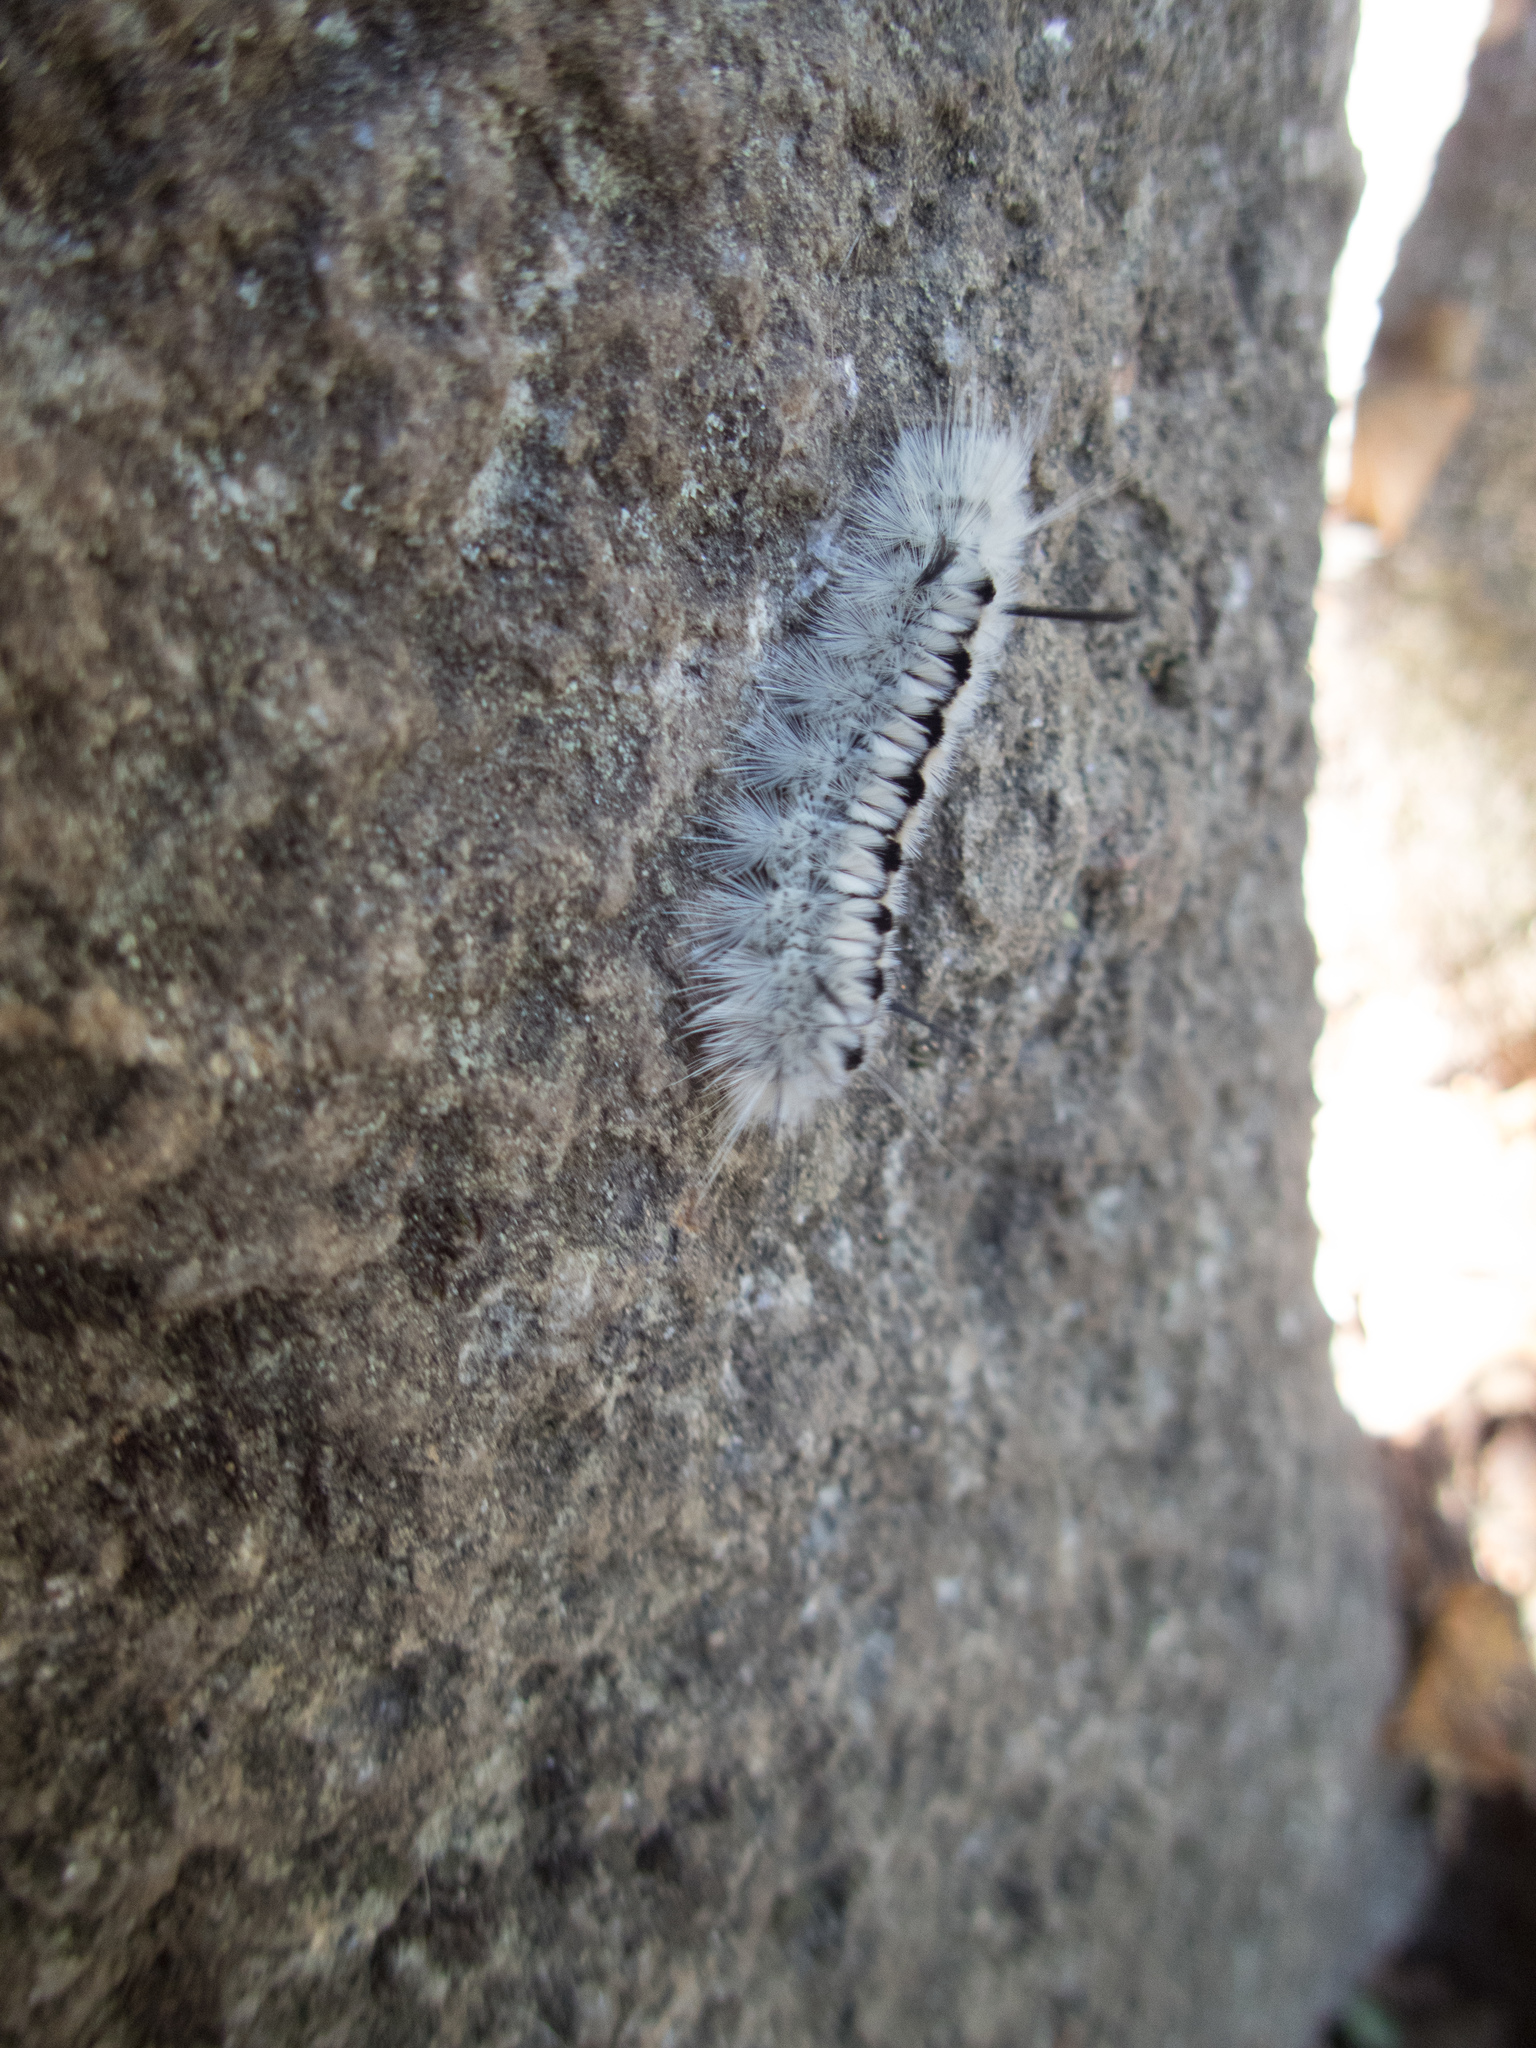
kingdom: Animalia
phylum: Arthropoda
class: Insecta
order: Lepidoptera
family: Erebidae
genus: Lophocampa
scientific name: Lophocampa caryae
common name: Hickory tussock moth
